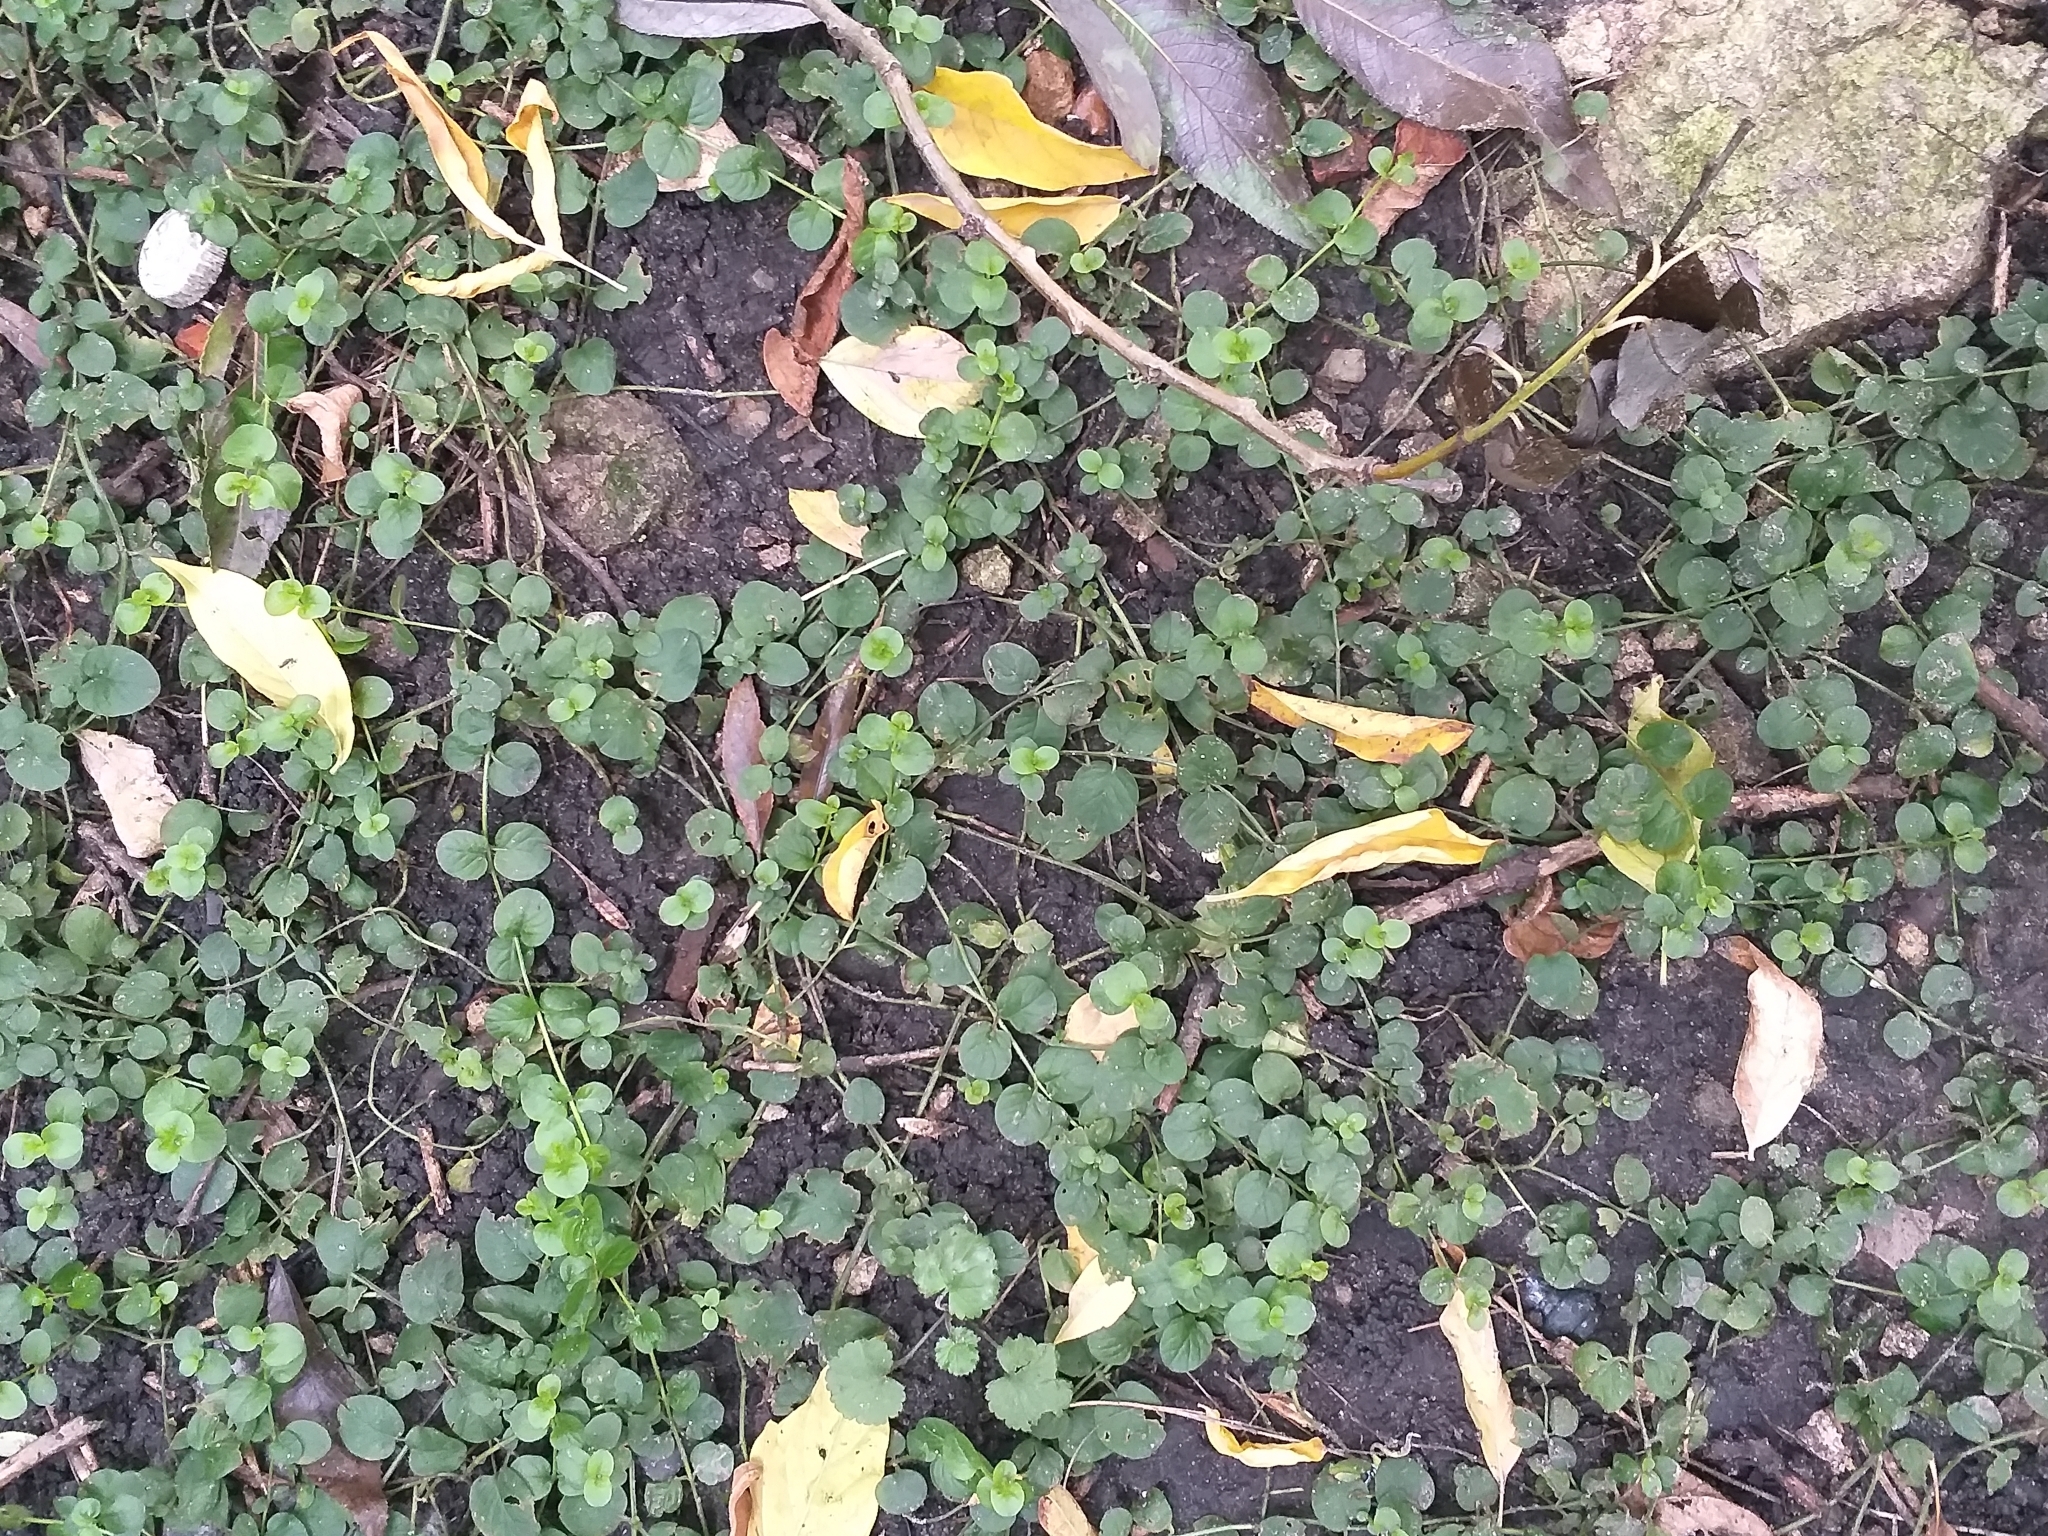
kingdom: Plantae
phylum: Tracheophyta
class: Magnoliopsida
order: Ericales
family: Primulaceae
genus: Lysimachia
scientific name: Lysimachia nummularia
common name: Moneywort
